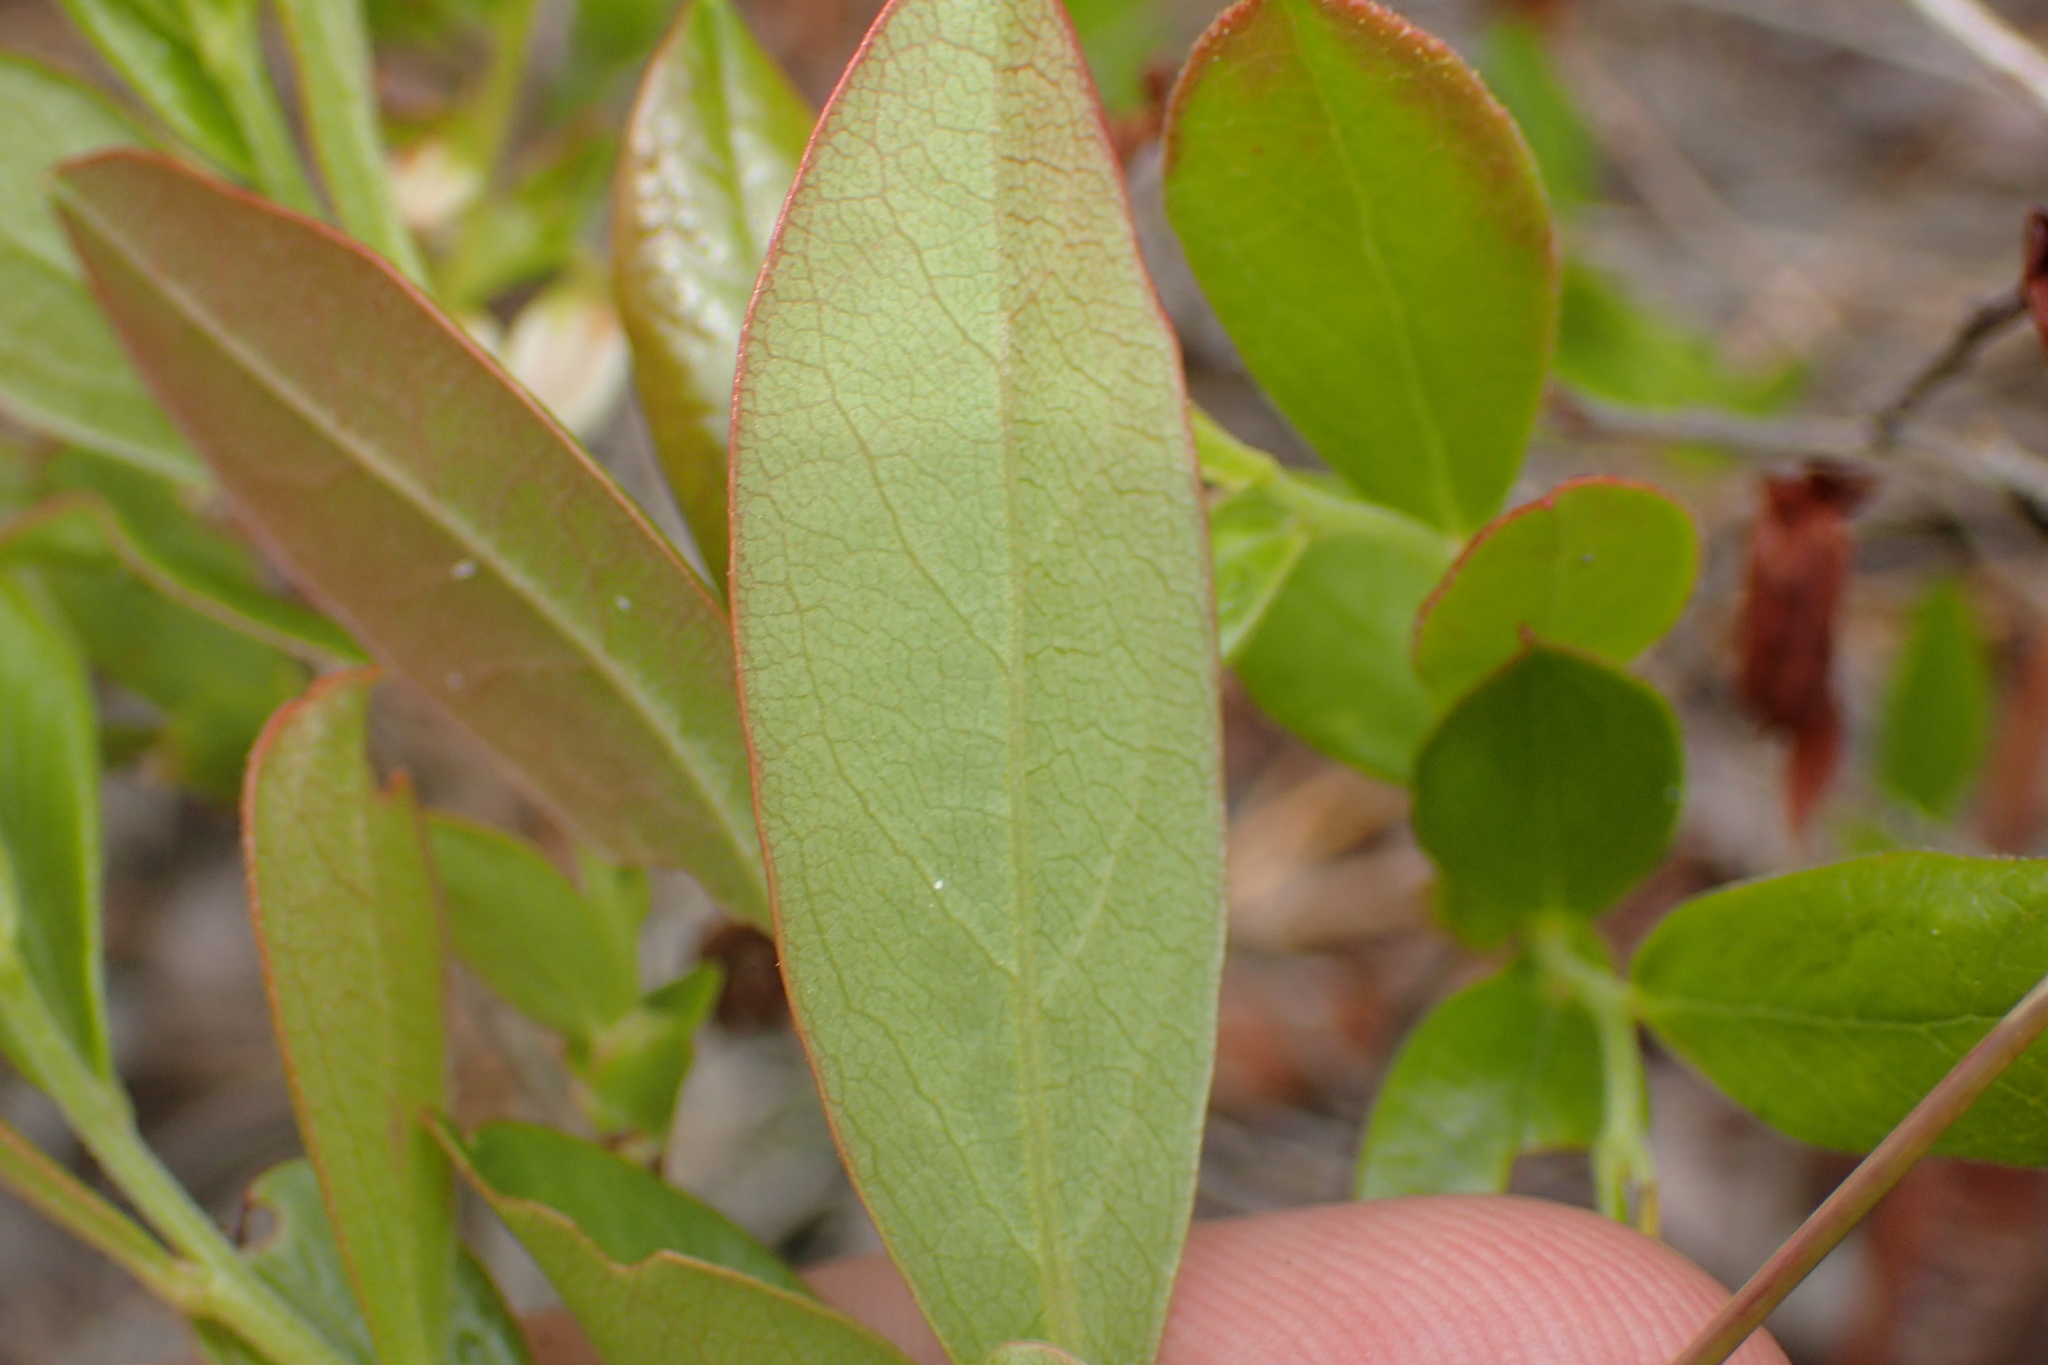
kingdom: Plantae
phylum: Tracheophyta
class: Magnoliopsida
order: Ericales
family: Ericaceae
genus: Gaylussacia
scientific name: Gaylussacia dumosa
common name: Dwarf huckleberry
